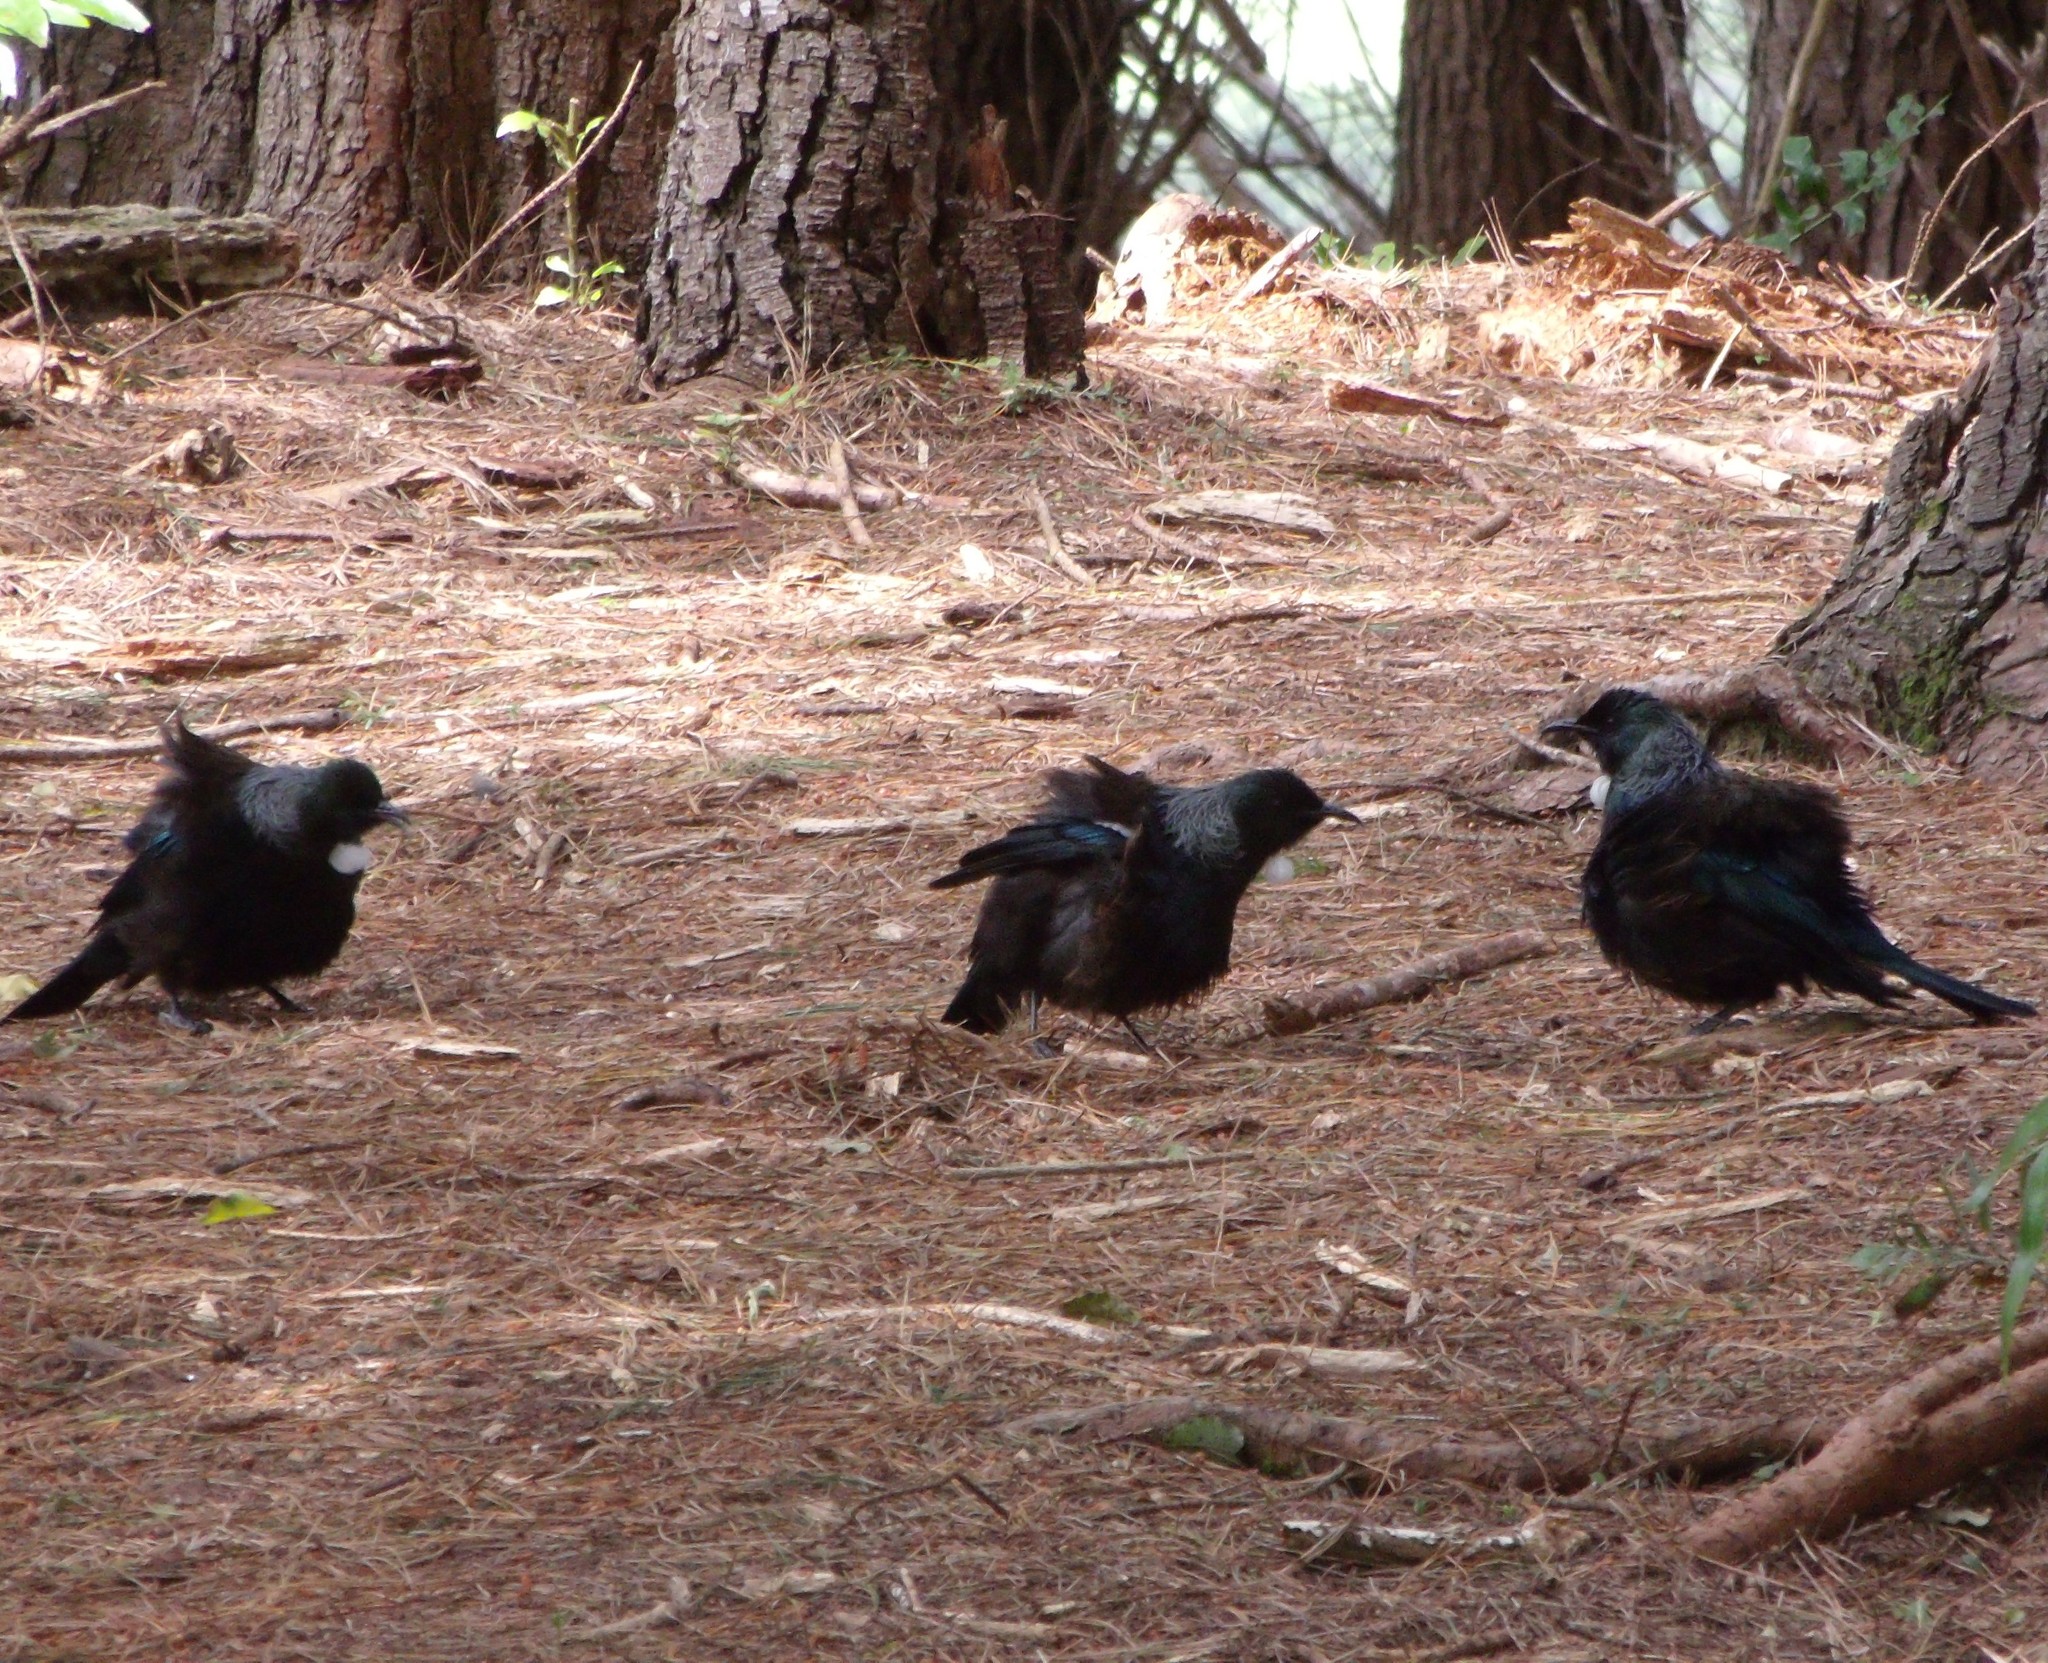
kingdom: Animalia
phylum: Chordata
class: Aves
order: Passeriformes
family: Meliphagidae
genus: Prosthemadera
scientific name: Prosthemadera novaeseelandiae
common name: Tui
